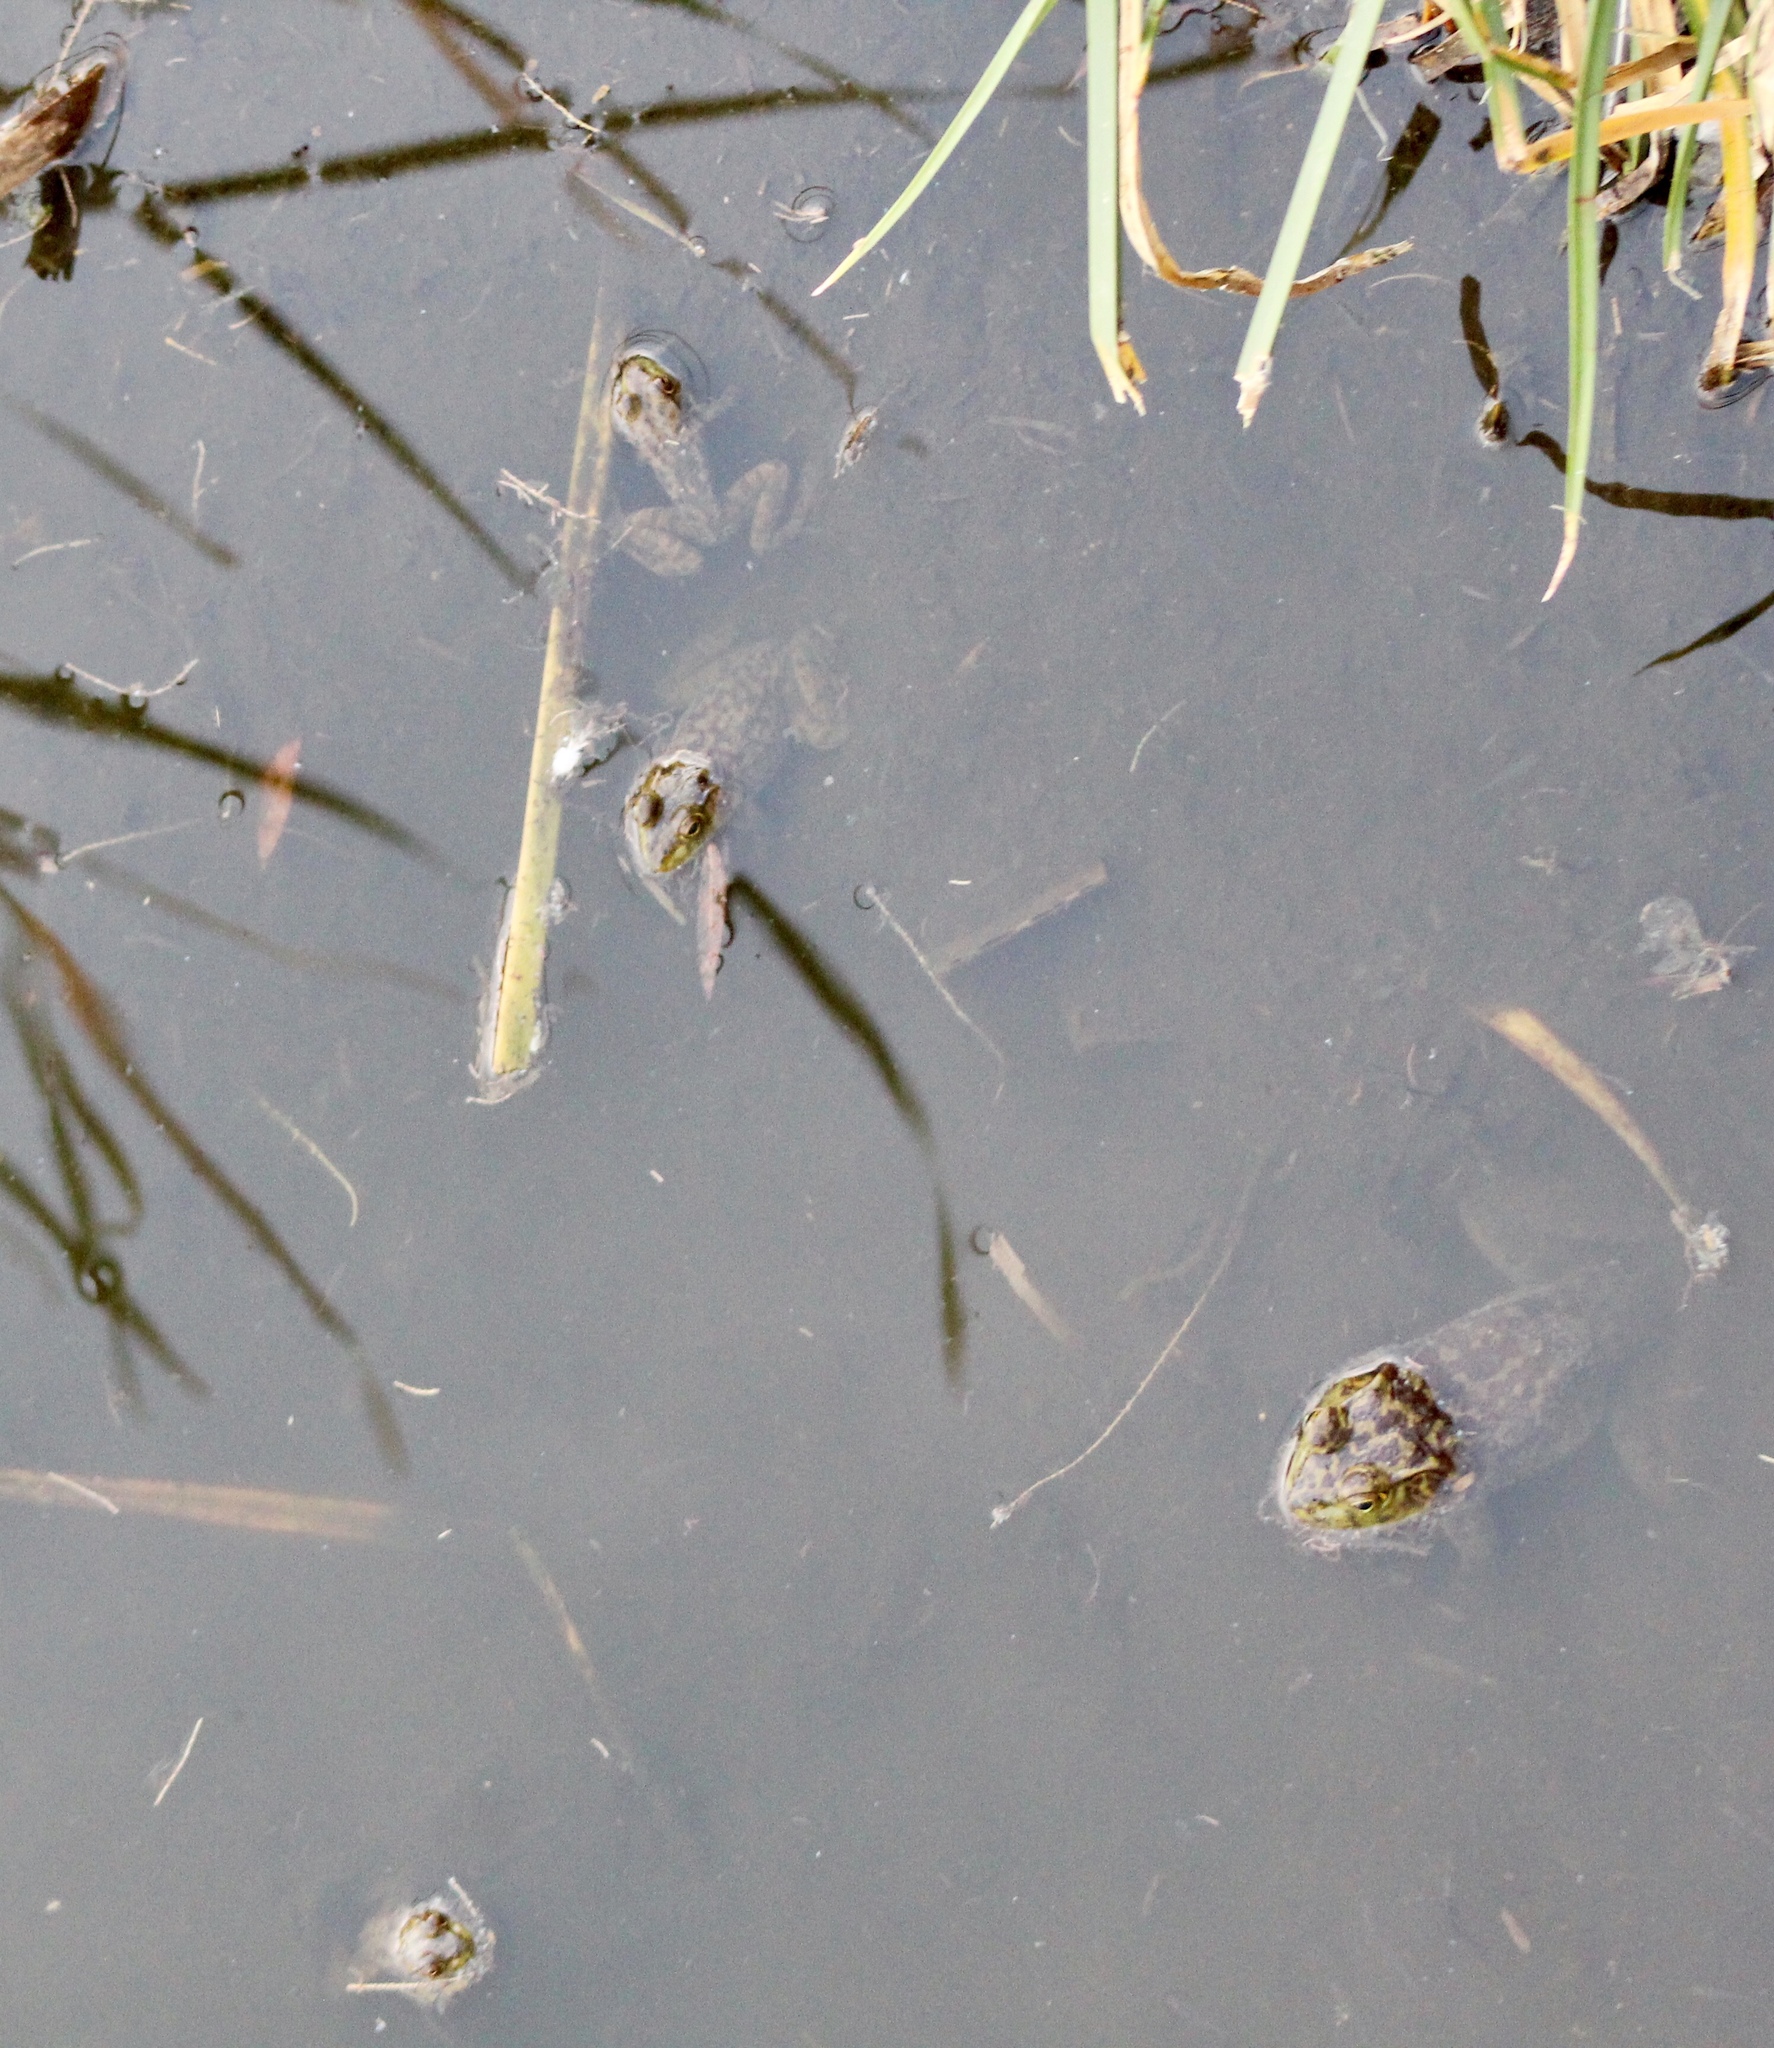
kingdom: Animalia
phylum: Chordata
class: Amphibia
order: Anura
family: Ranidae
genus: Lithobates
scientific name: Lithobates catesbeianus
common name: American bullfrog
